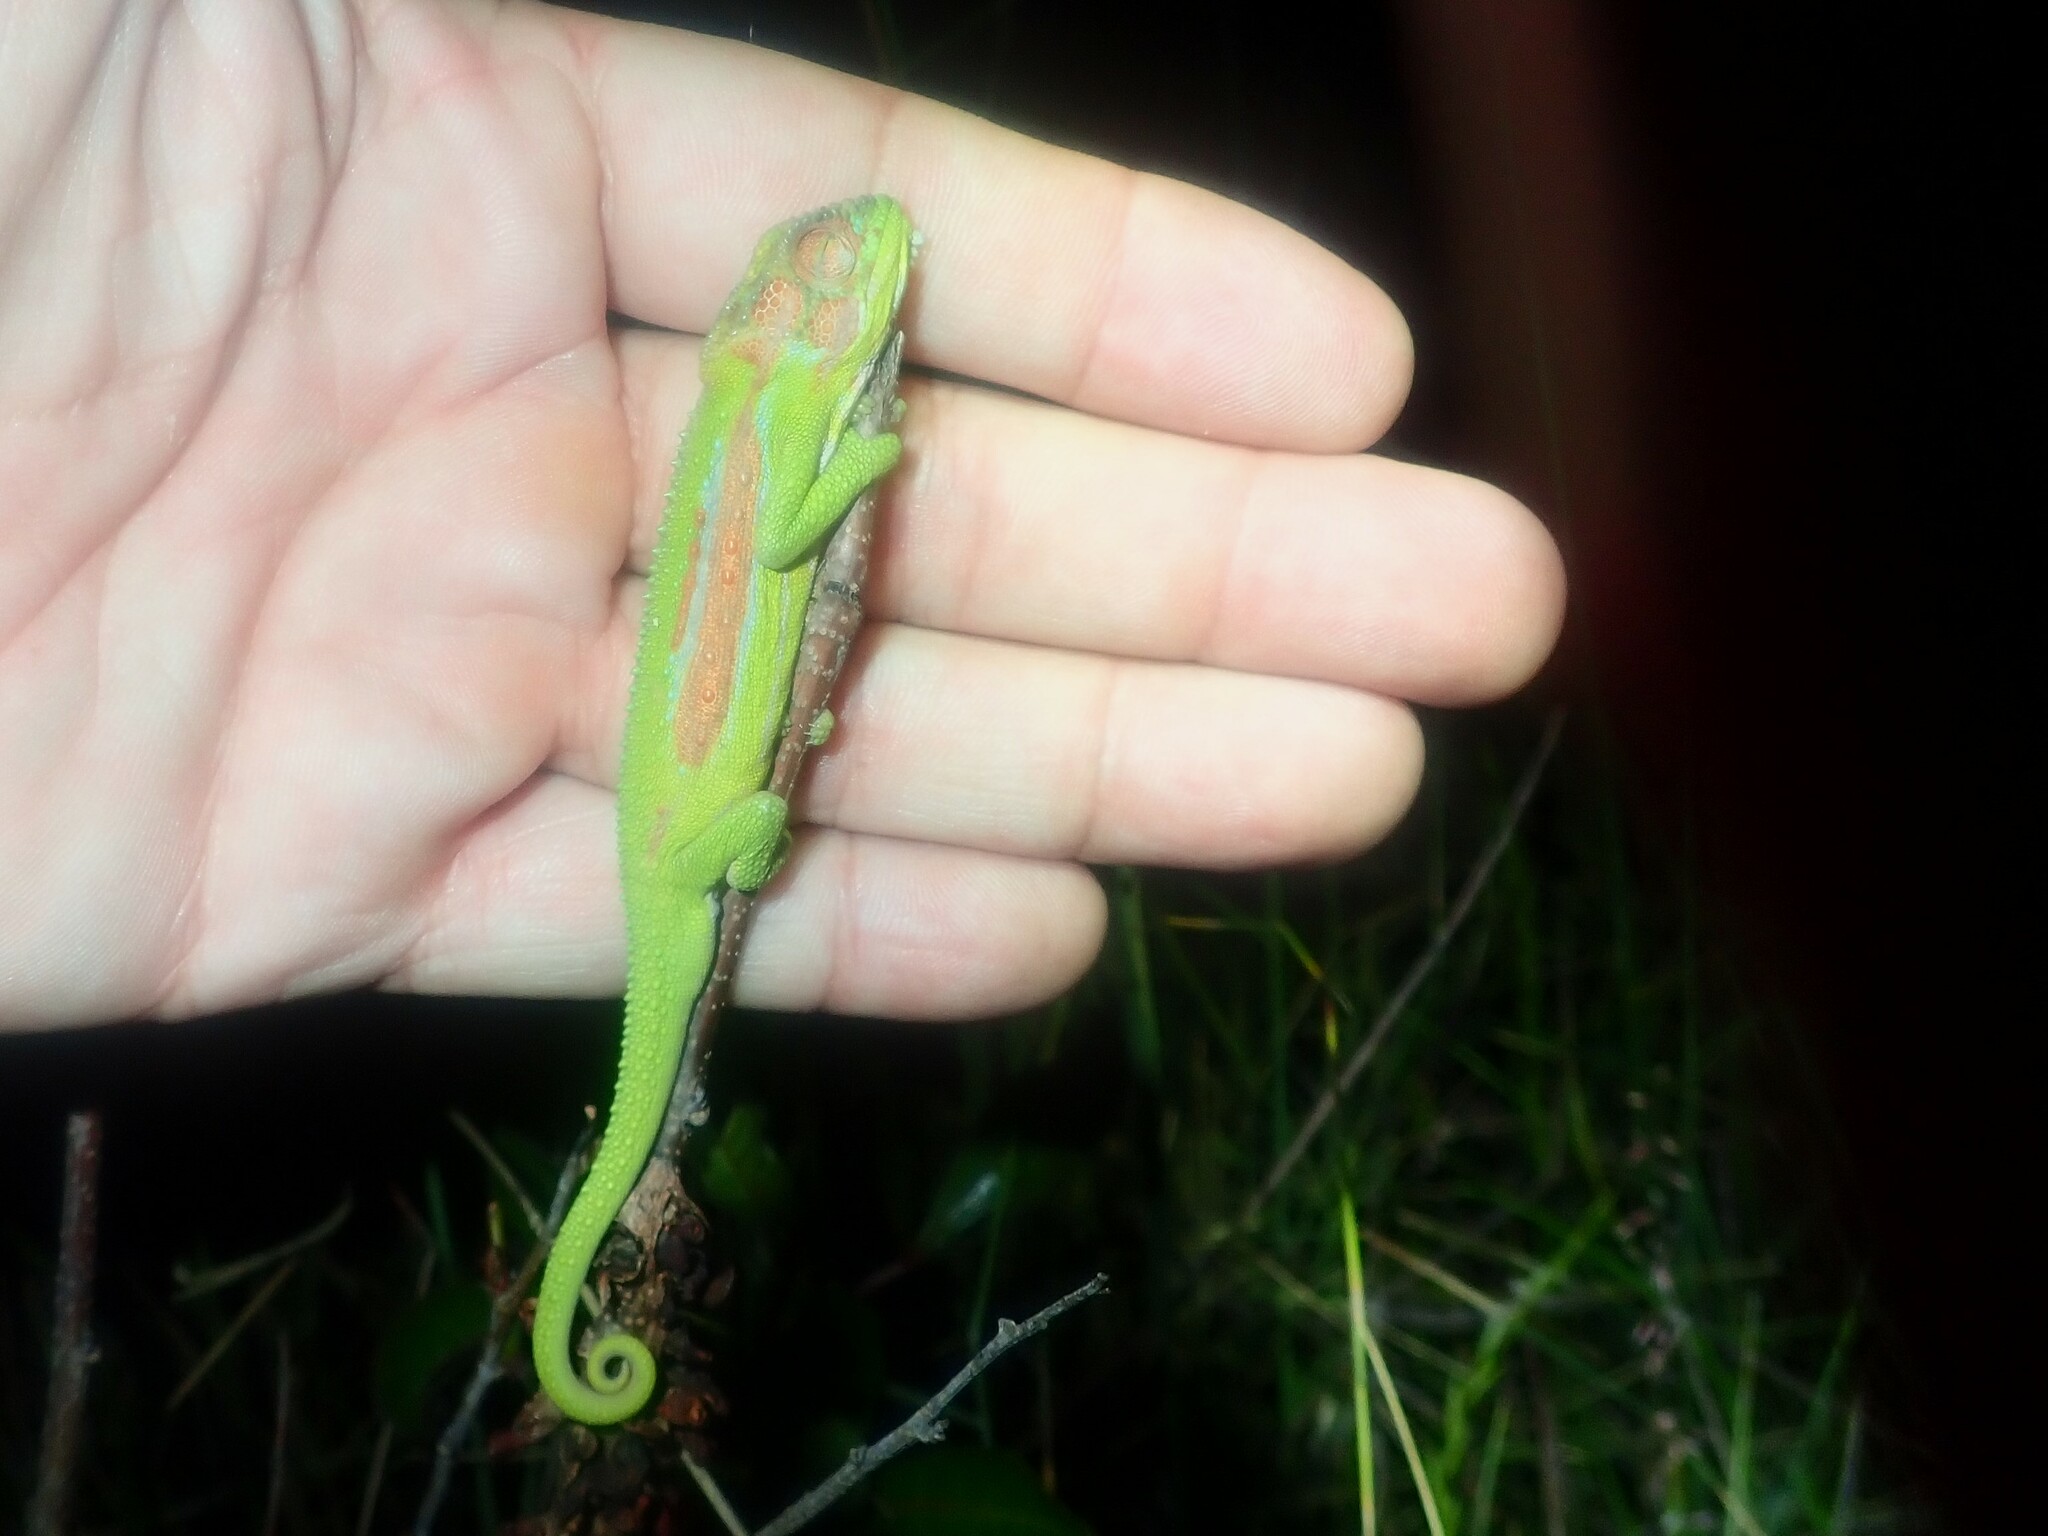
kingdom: Animalia
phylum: Chordata
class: Squamata
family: Chamaeleonidae
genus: Bradypodion
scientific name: Bradypodion pumilum
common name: Cape dwarf chameleon
